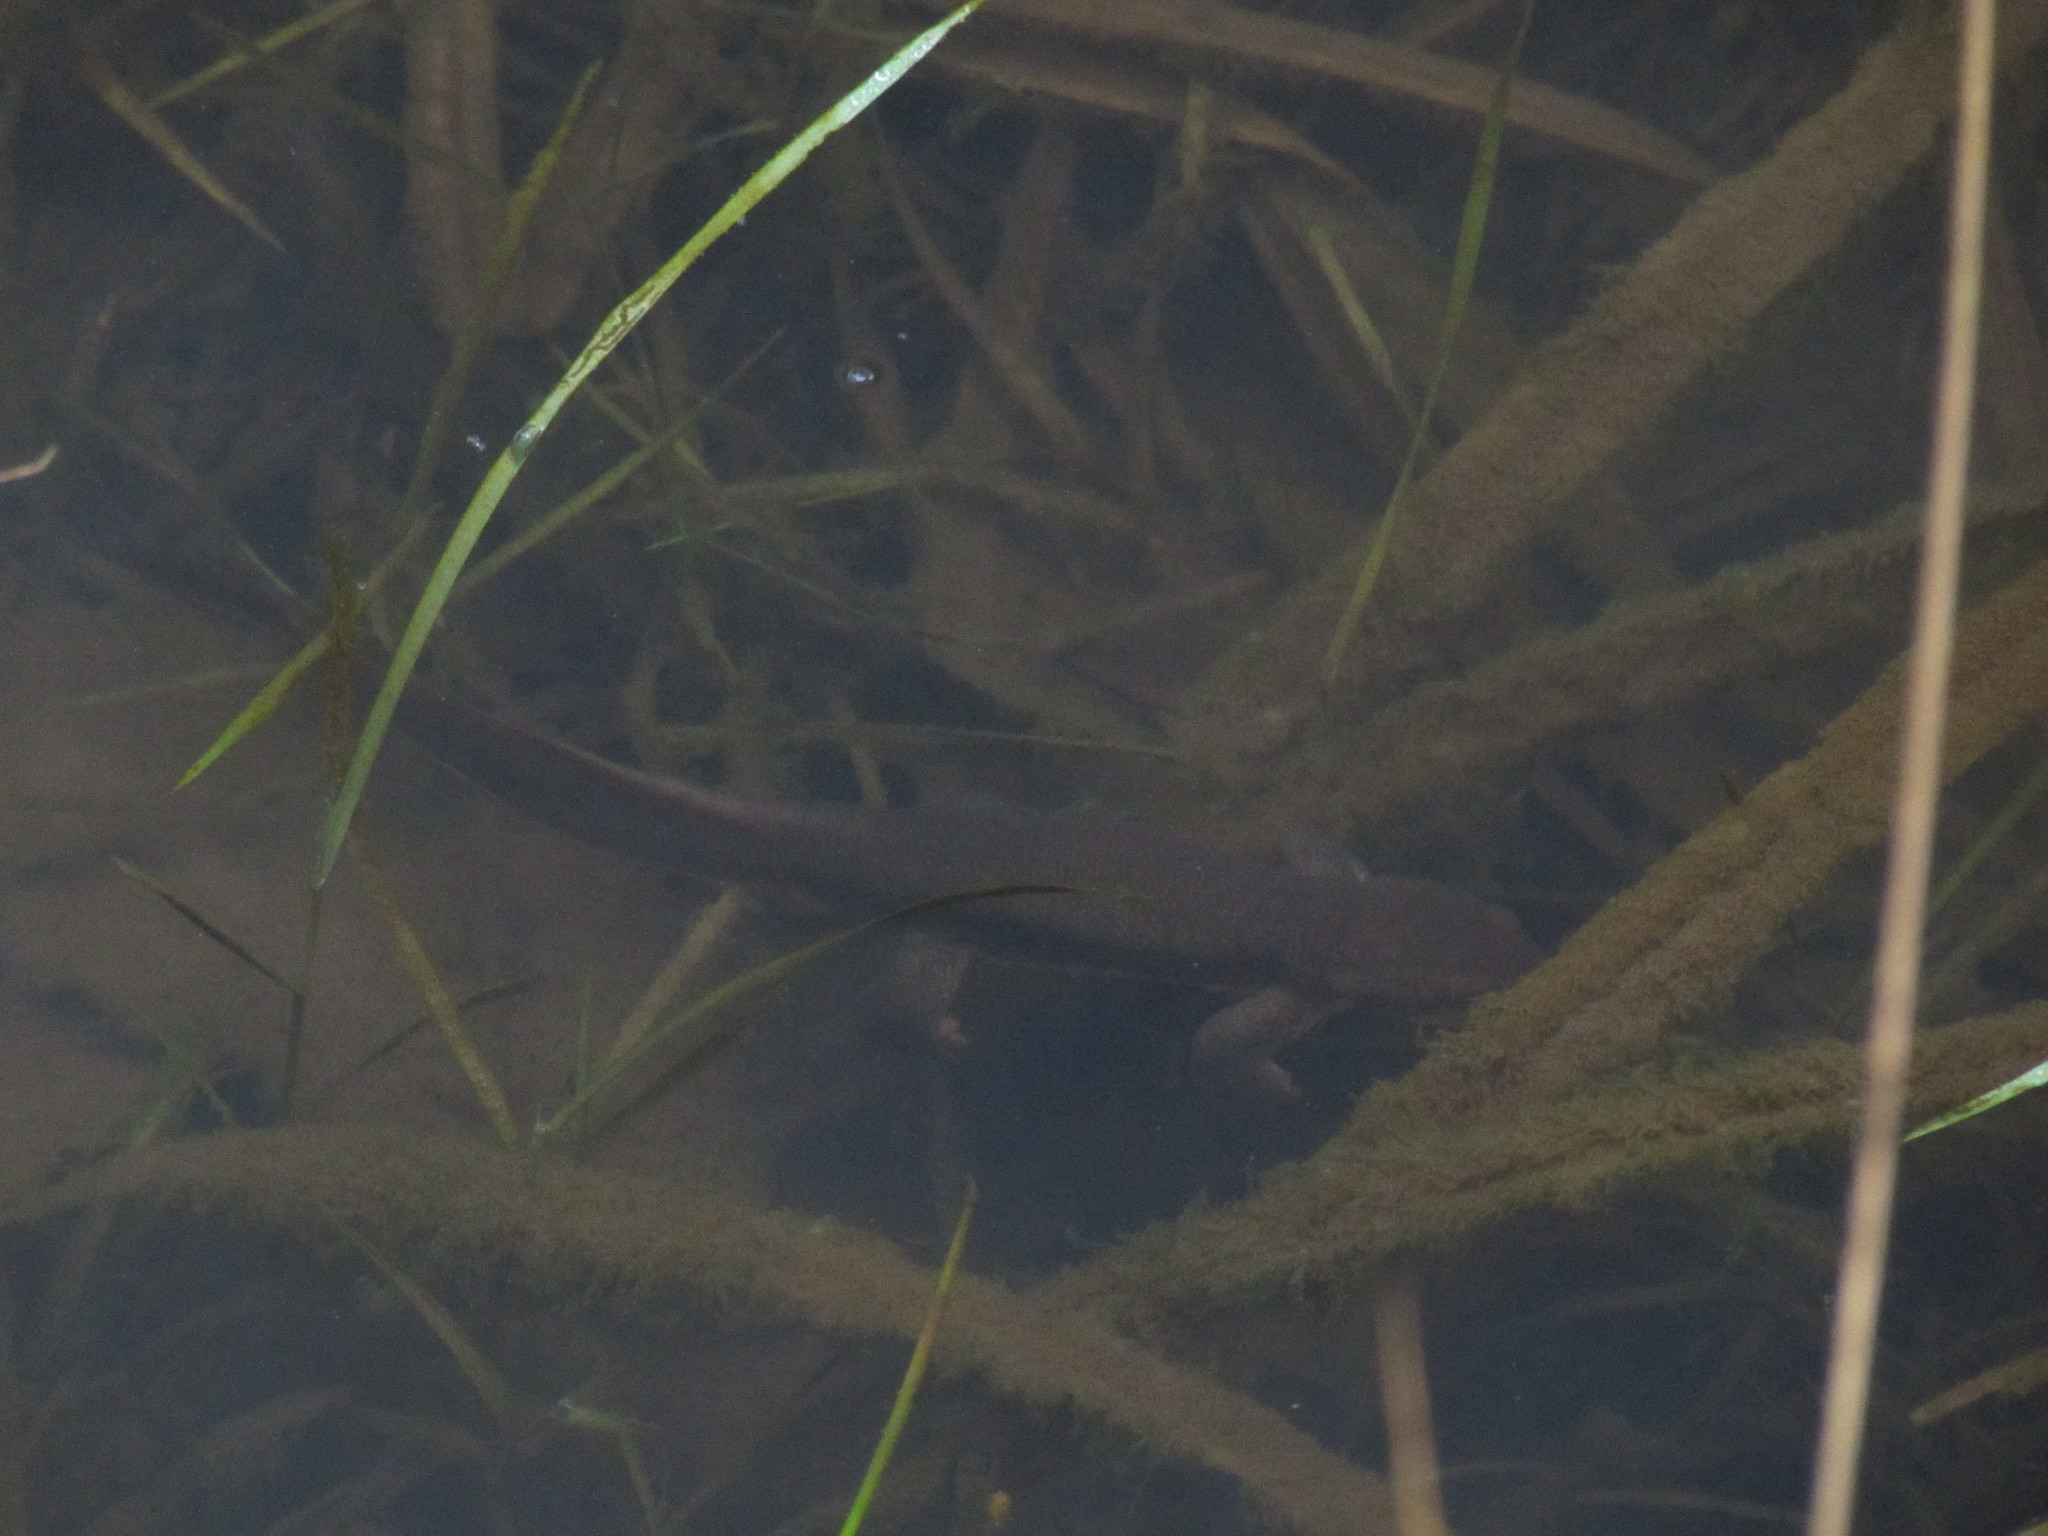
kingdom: Animalia
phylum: Chordata
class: Amphibia
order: Caudata
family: Salamandridae
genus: Taricha
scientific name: Taricha granulosa
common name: Roughskin newt
